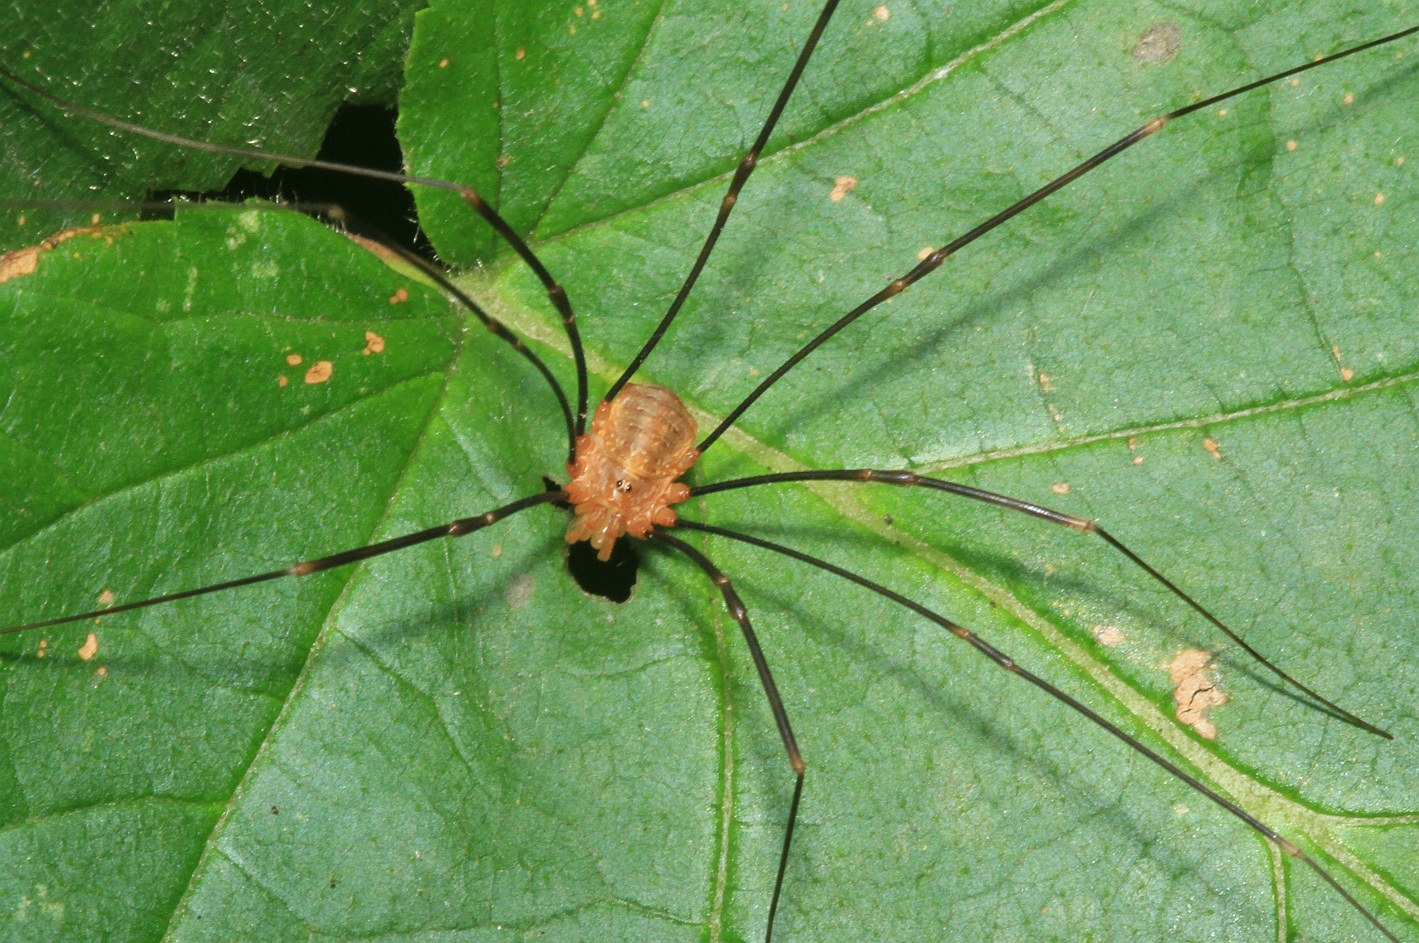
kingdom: Animalia
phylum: Arthropoda
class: Arachnida
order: Opiliones
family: Phalangiidae
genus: Opilio
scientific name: Opilio canestrinii
